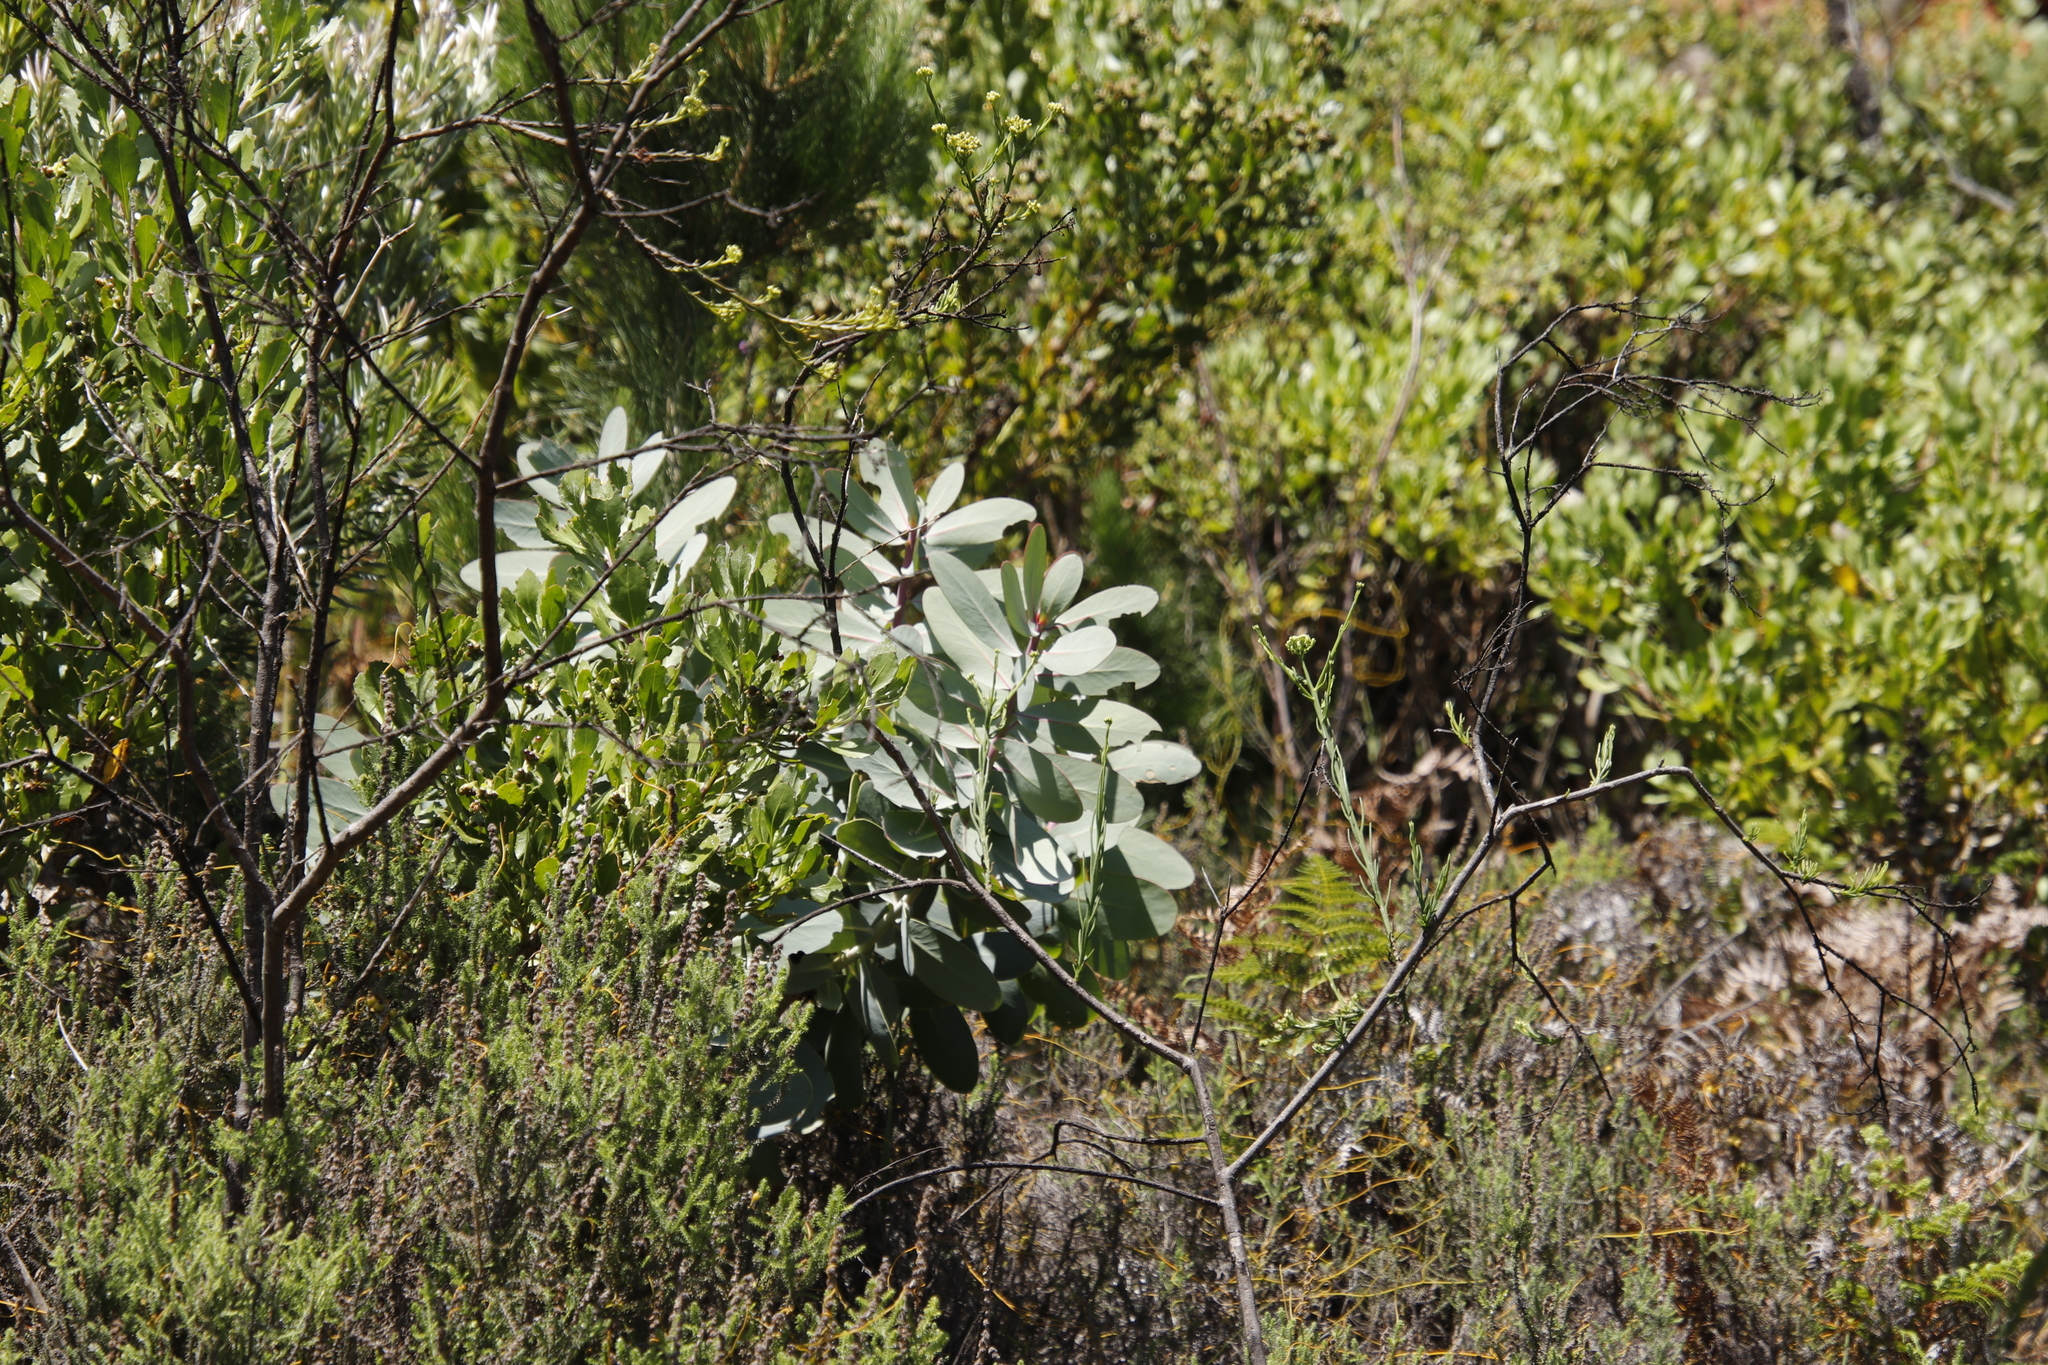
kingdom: Plantae
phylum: Tracheophyta
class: Magnoliopsida
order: Proteales
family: Proteaceae
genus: Protea
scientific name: Protea nitida
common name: Tree protea
